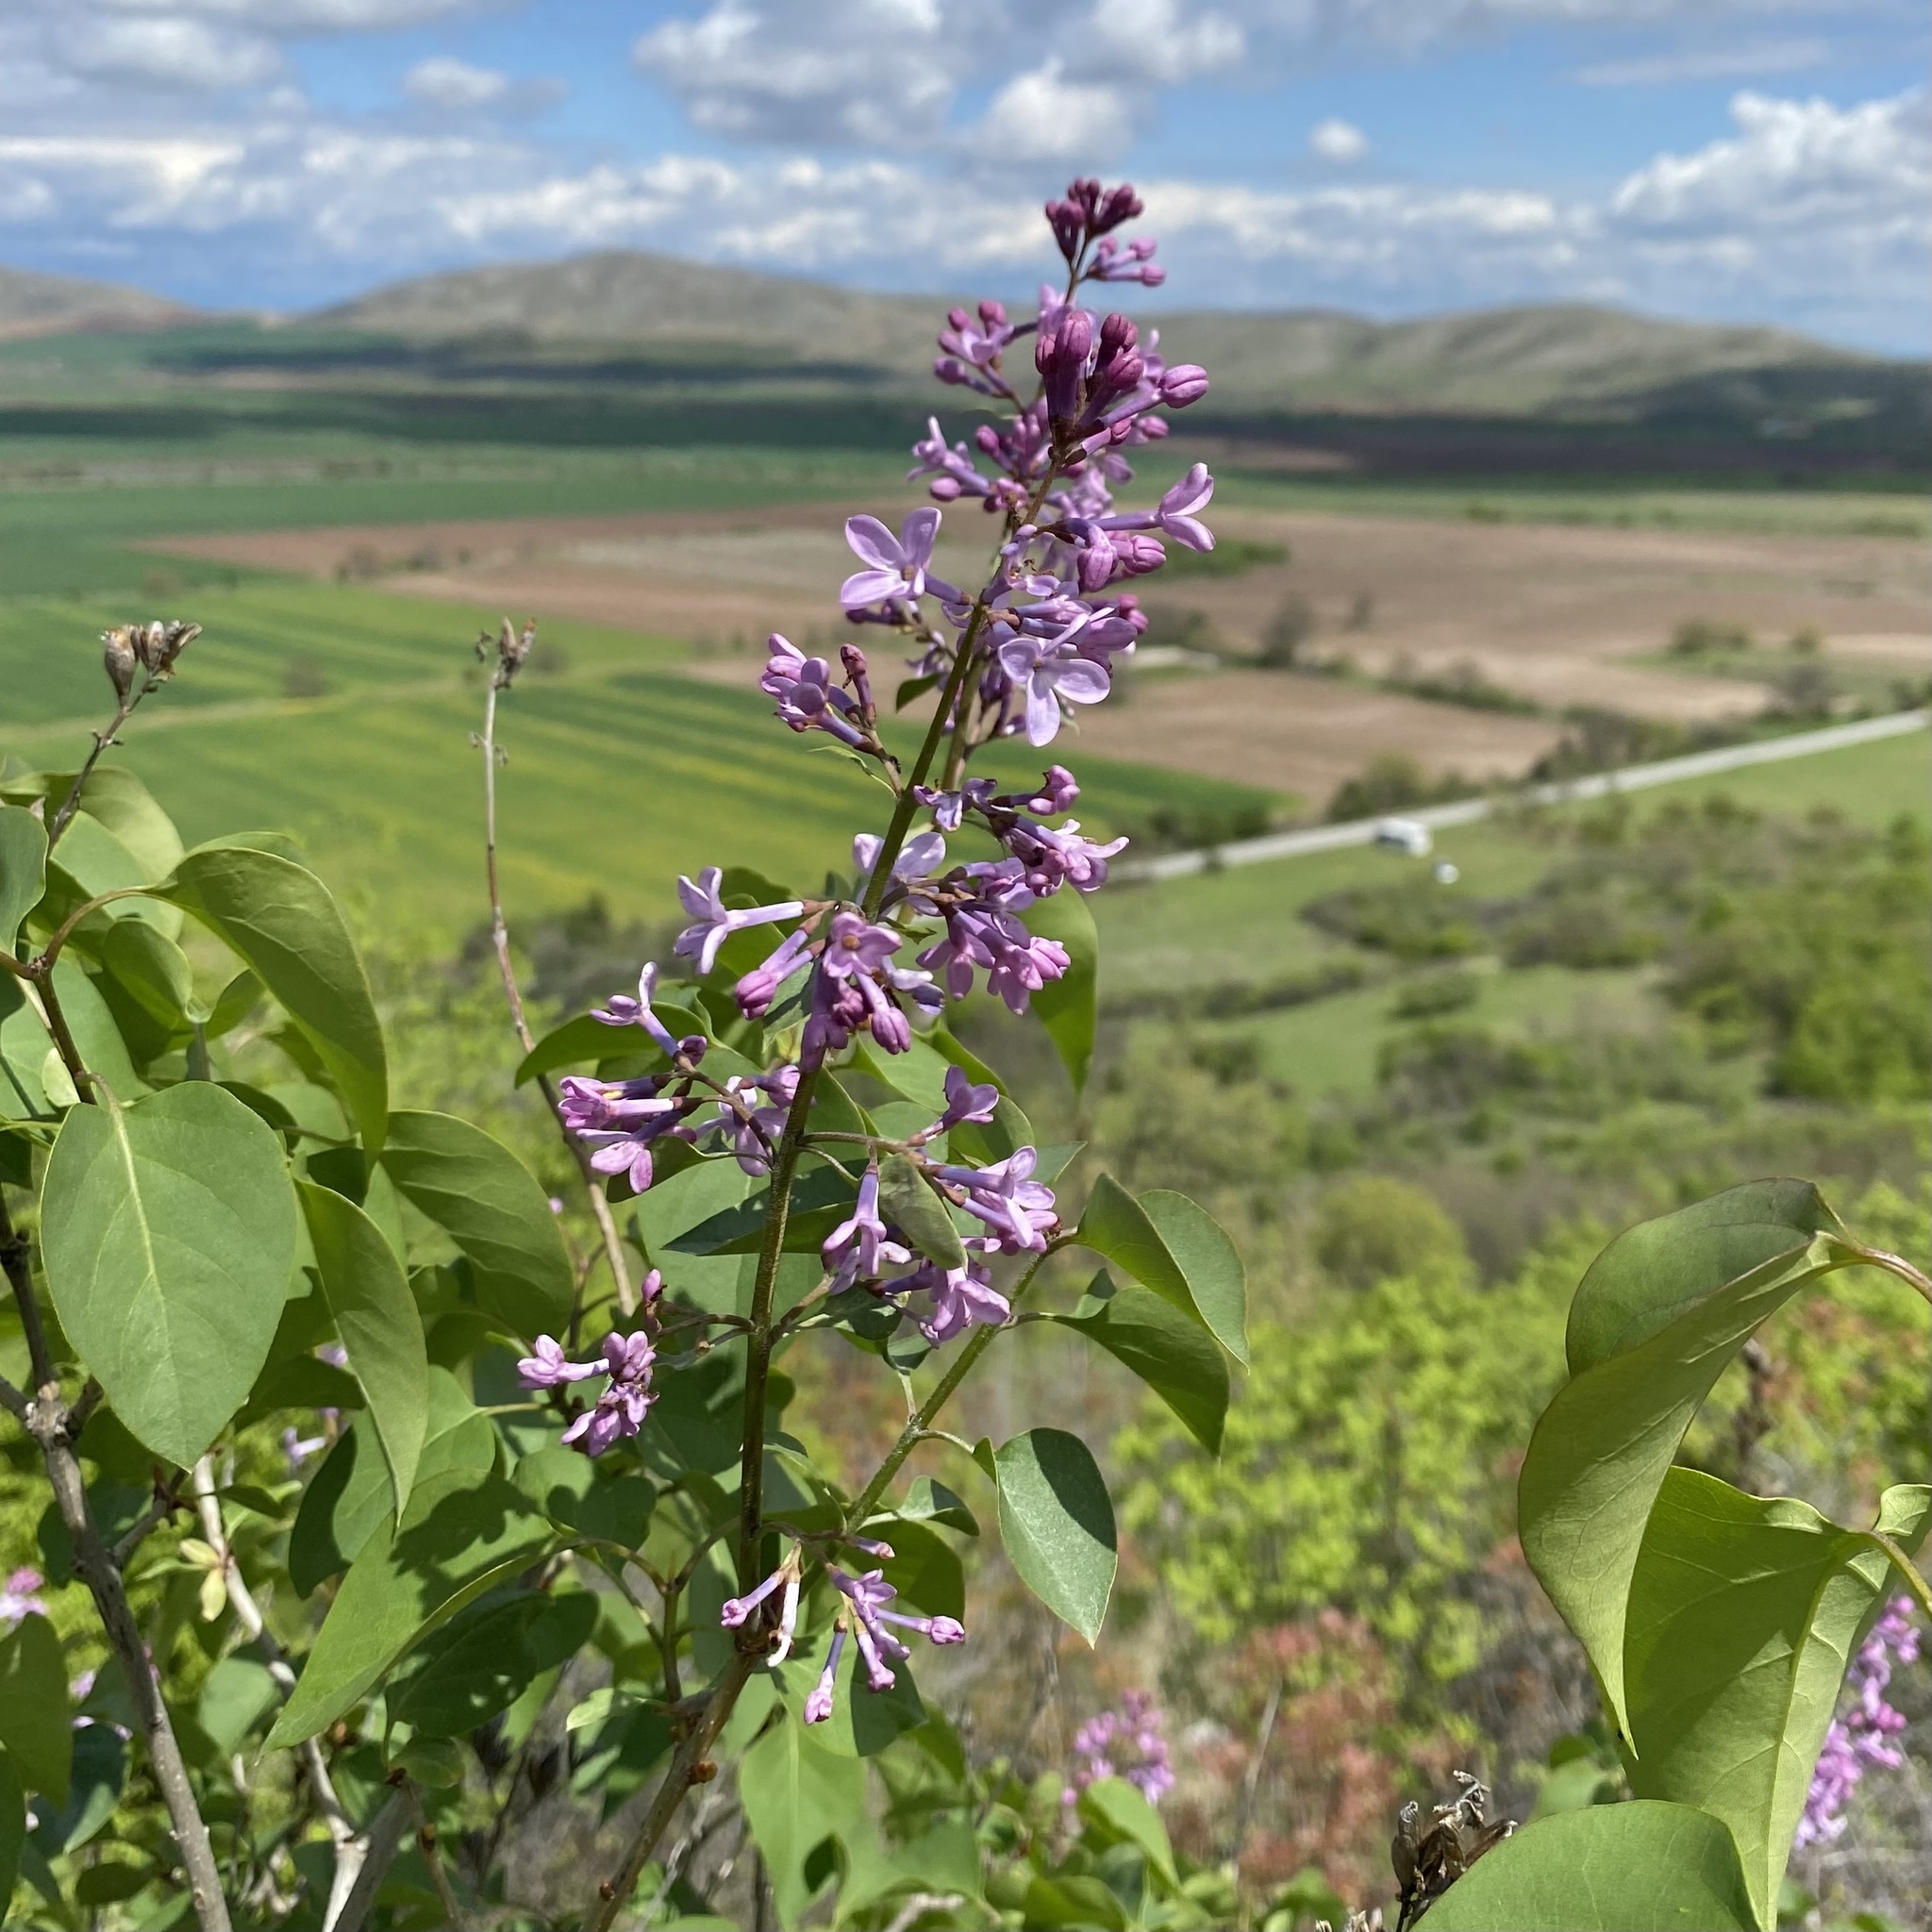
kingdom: Plantae
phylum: Tracheophyta
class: Magnoliopsida
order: Lamiales
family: Oleaceae
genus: Syringa
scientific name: Syringa vulgaris
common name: Common lilac
